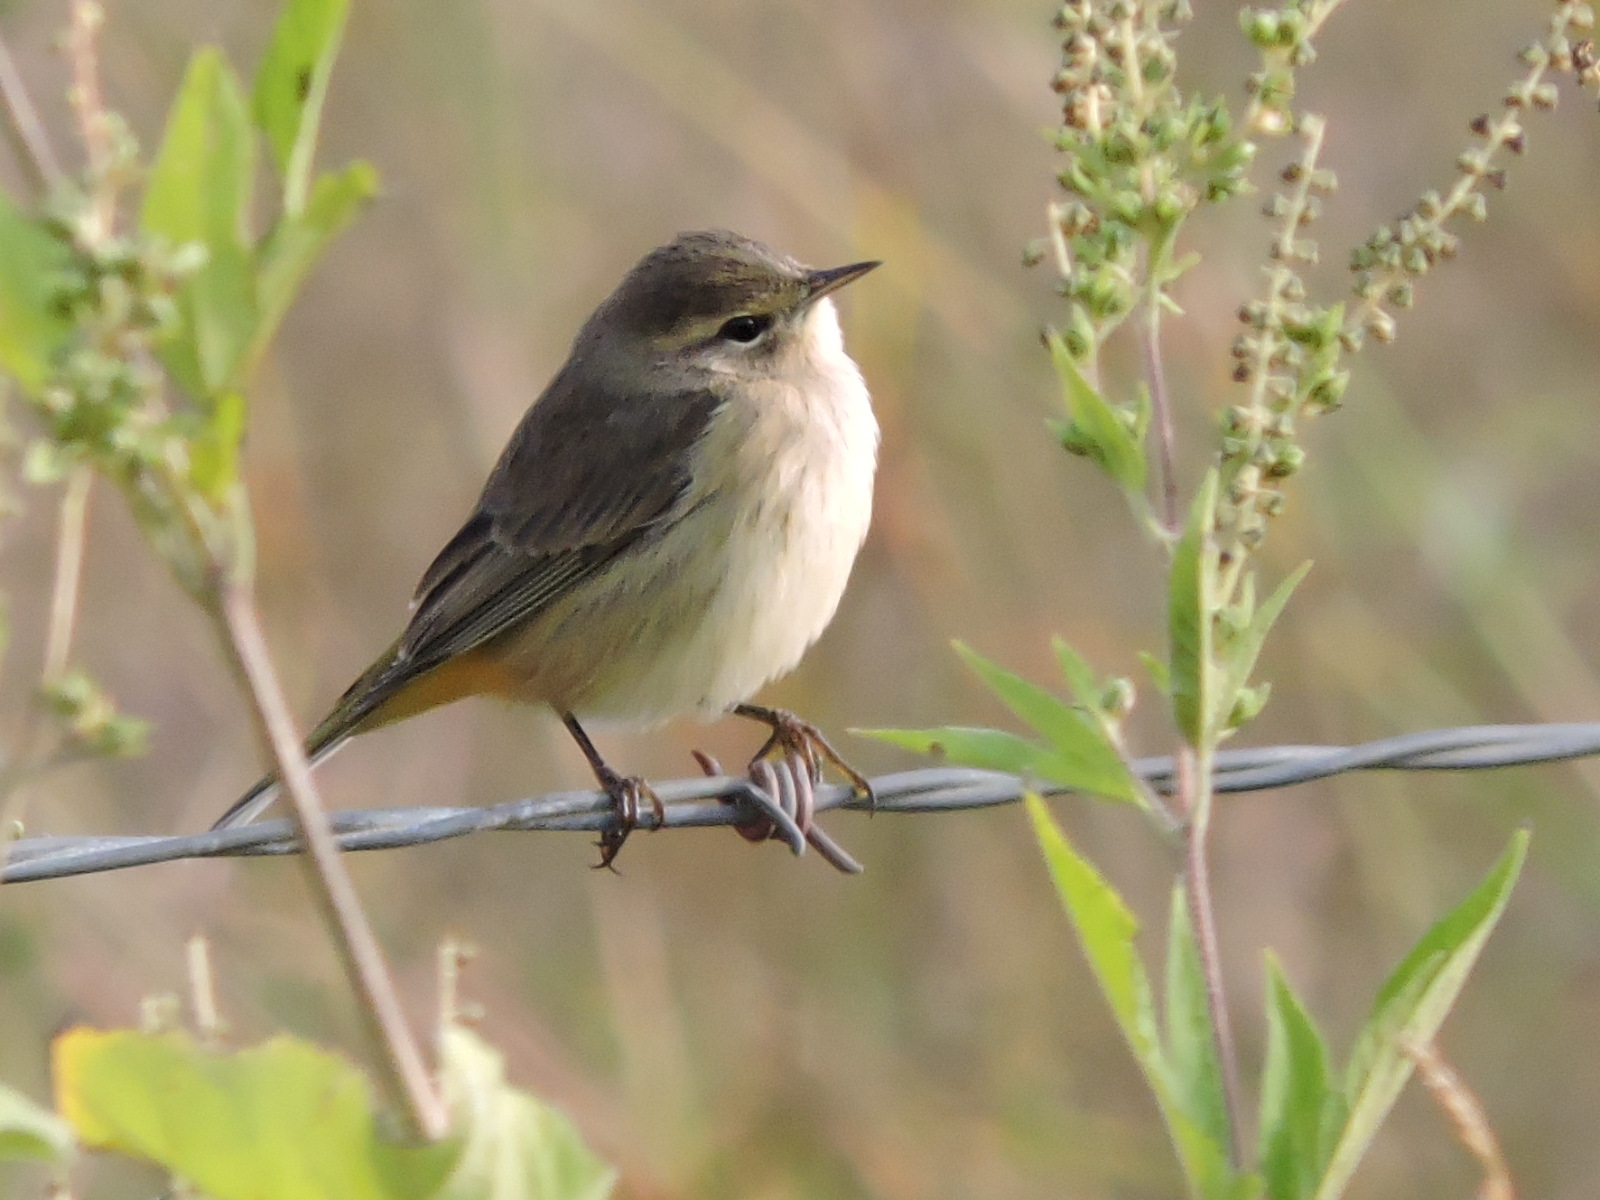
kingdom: Animalia
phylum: Chordata
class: Aves
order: Passeriformes
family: Parulidae
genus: Setophaga
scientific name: Setophaga palmarum
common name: Palm warbler
